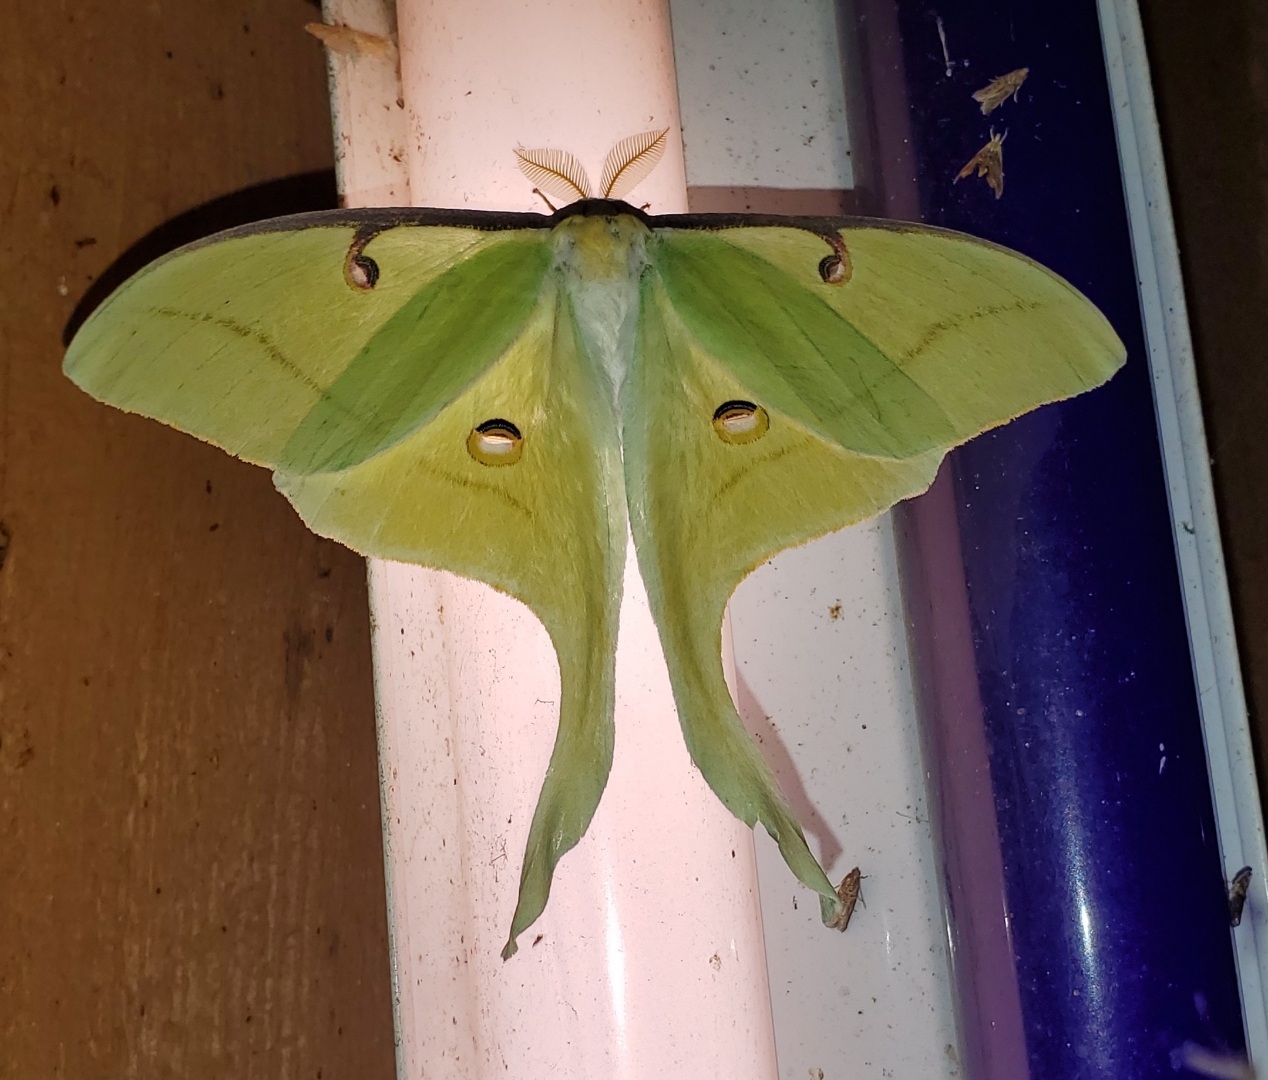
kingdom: Animalia
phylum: Arthropoda
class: Insecta
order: Lepidoptera
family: Saturniidae
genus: Actias
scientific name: Actias luna
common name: Luna moth
